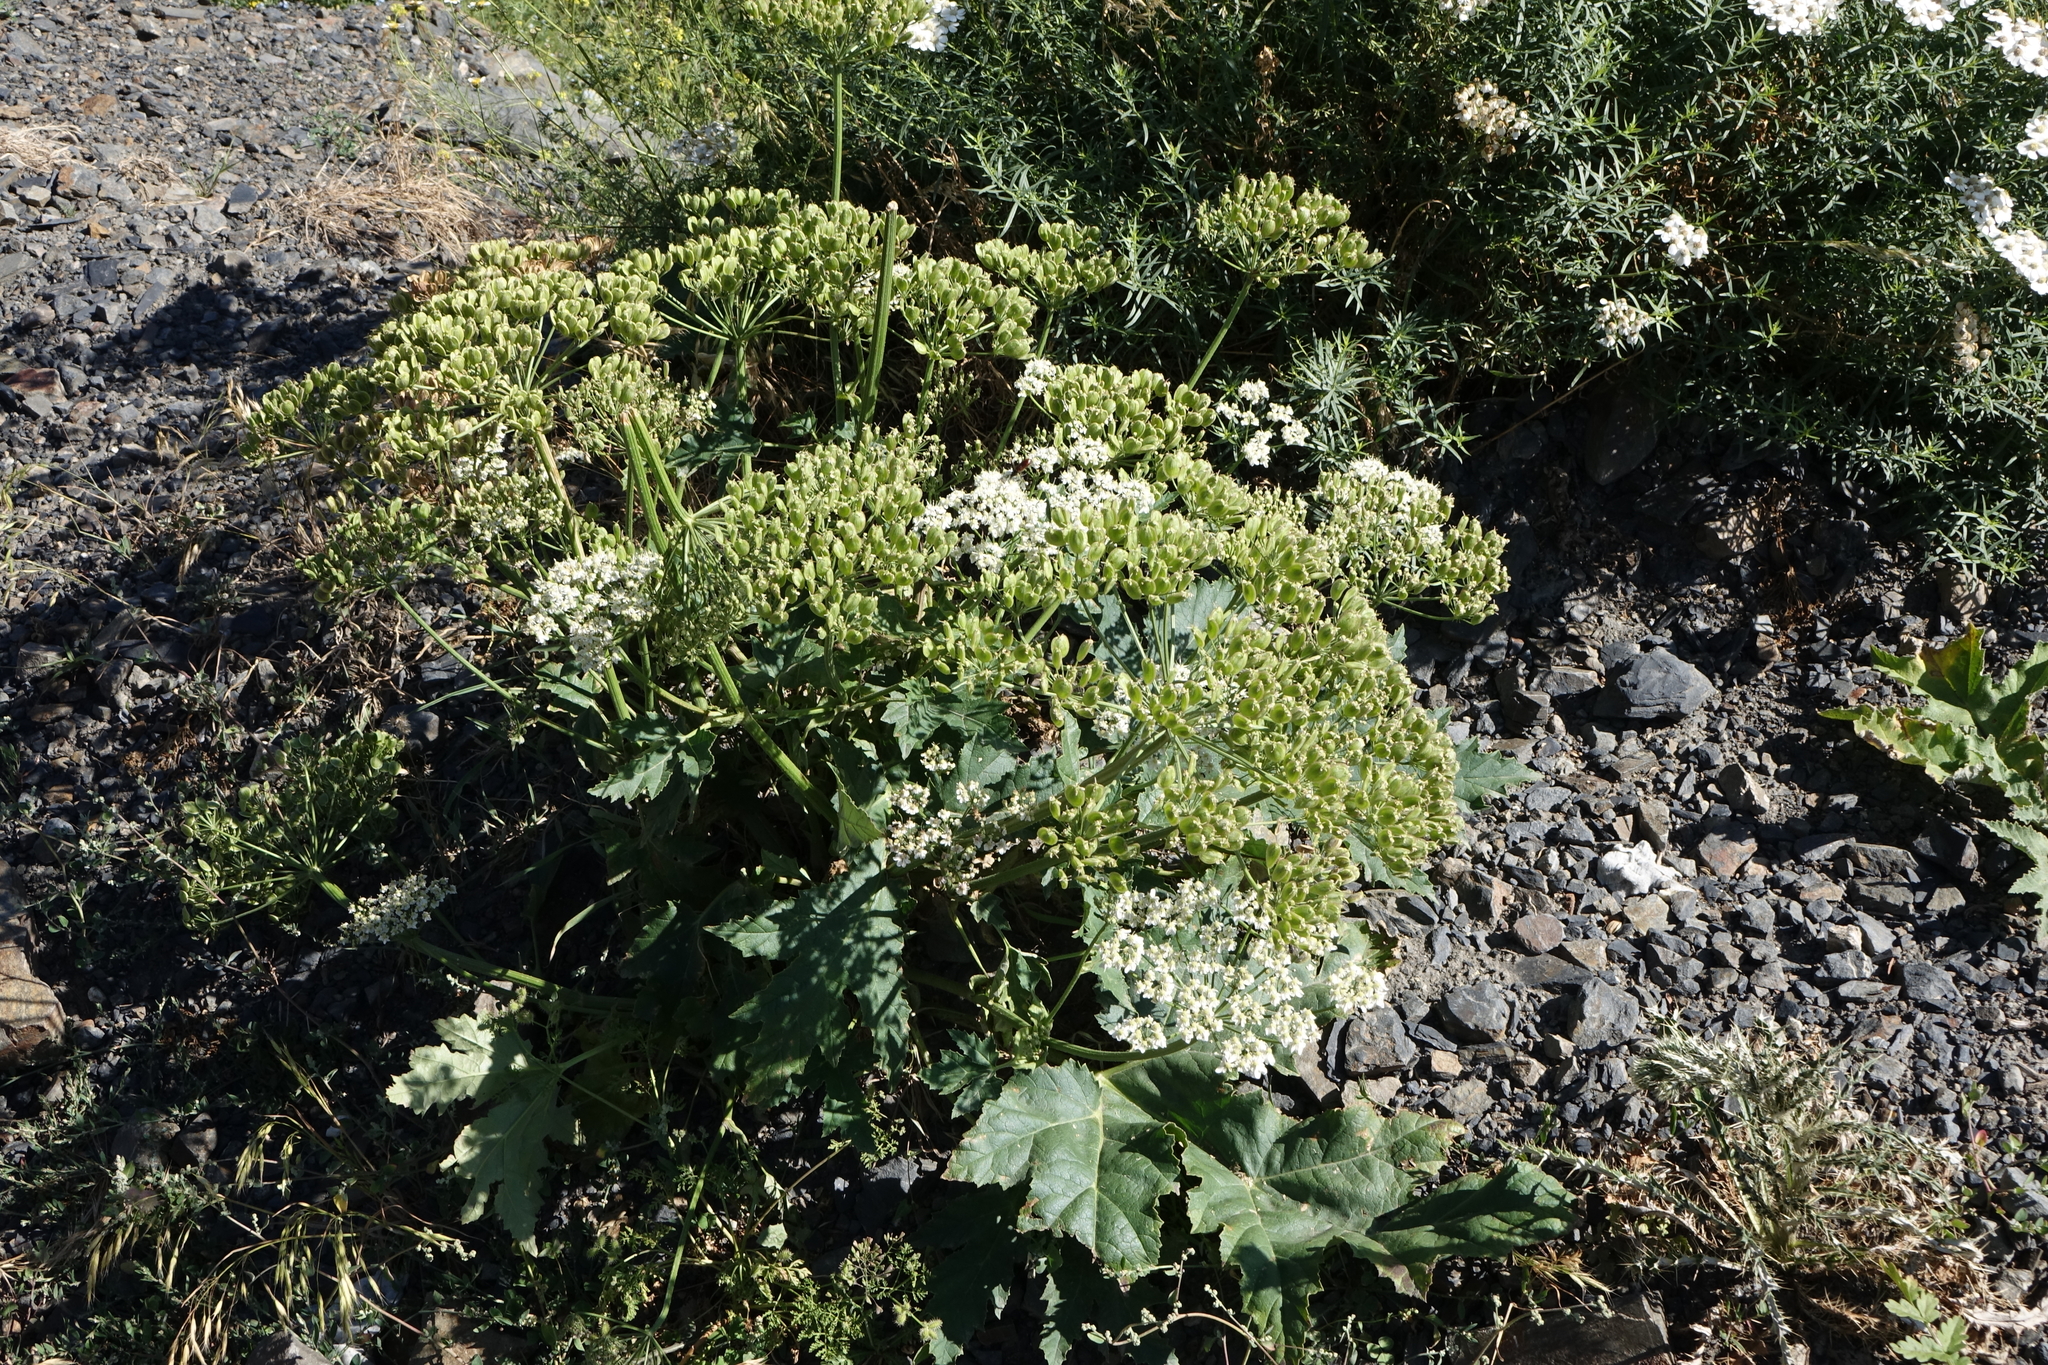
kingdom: Plantae
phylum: Tracheophyta
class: Magnoliopsida
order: Apiales
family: Apiaceae
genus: Heracleum
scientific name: Heracleum grandiflorum
